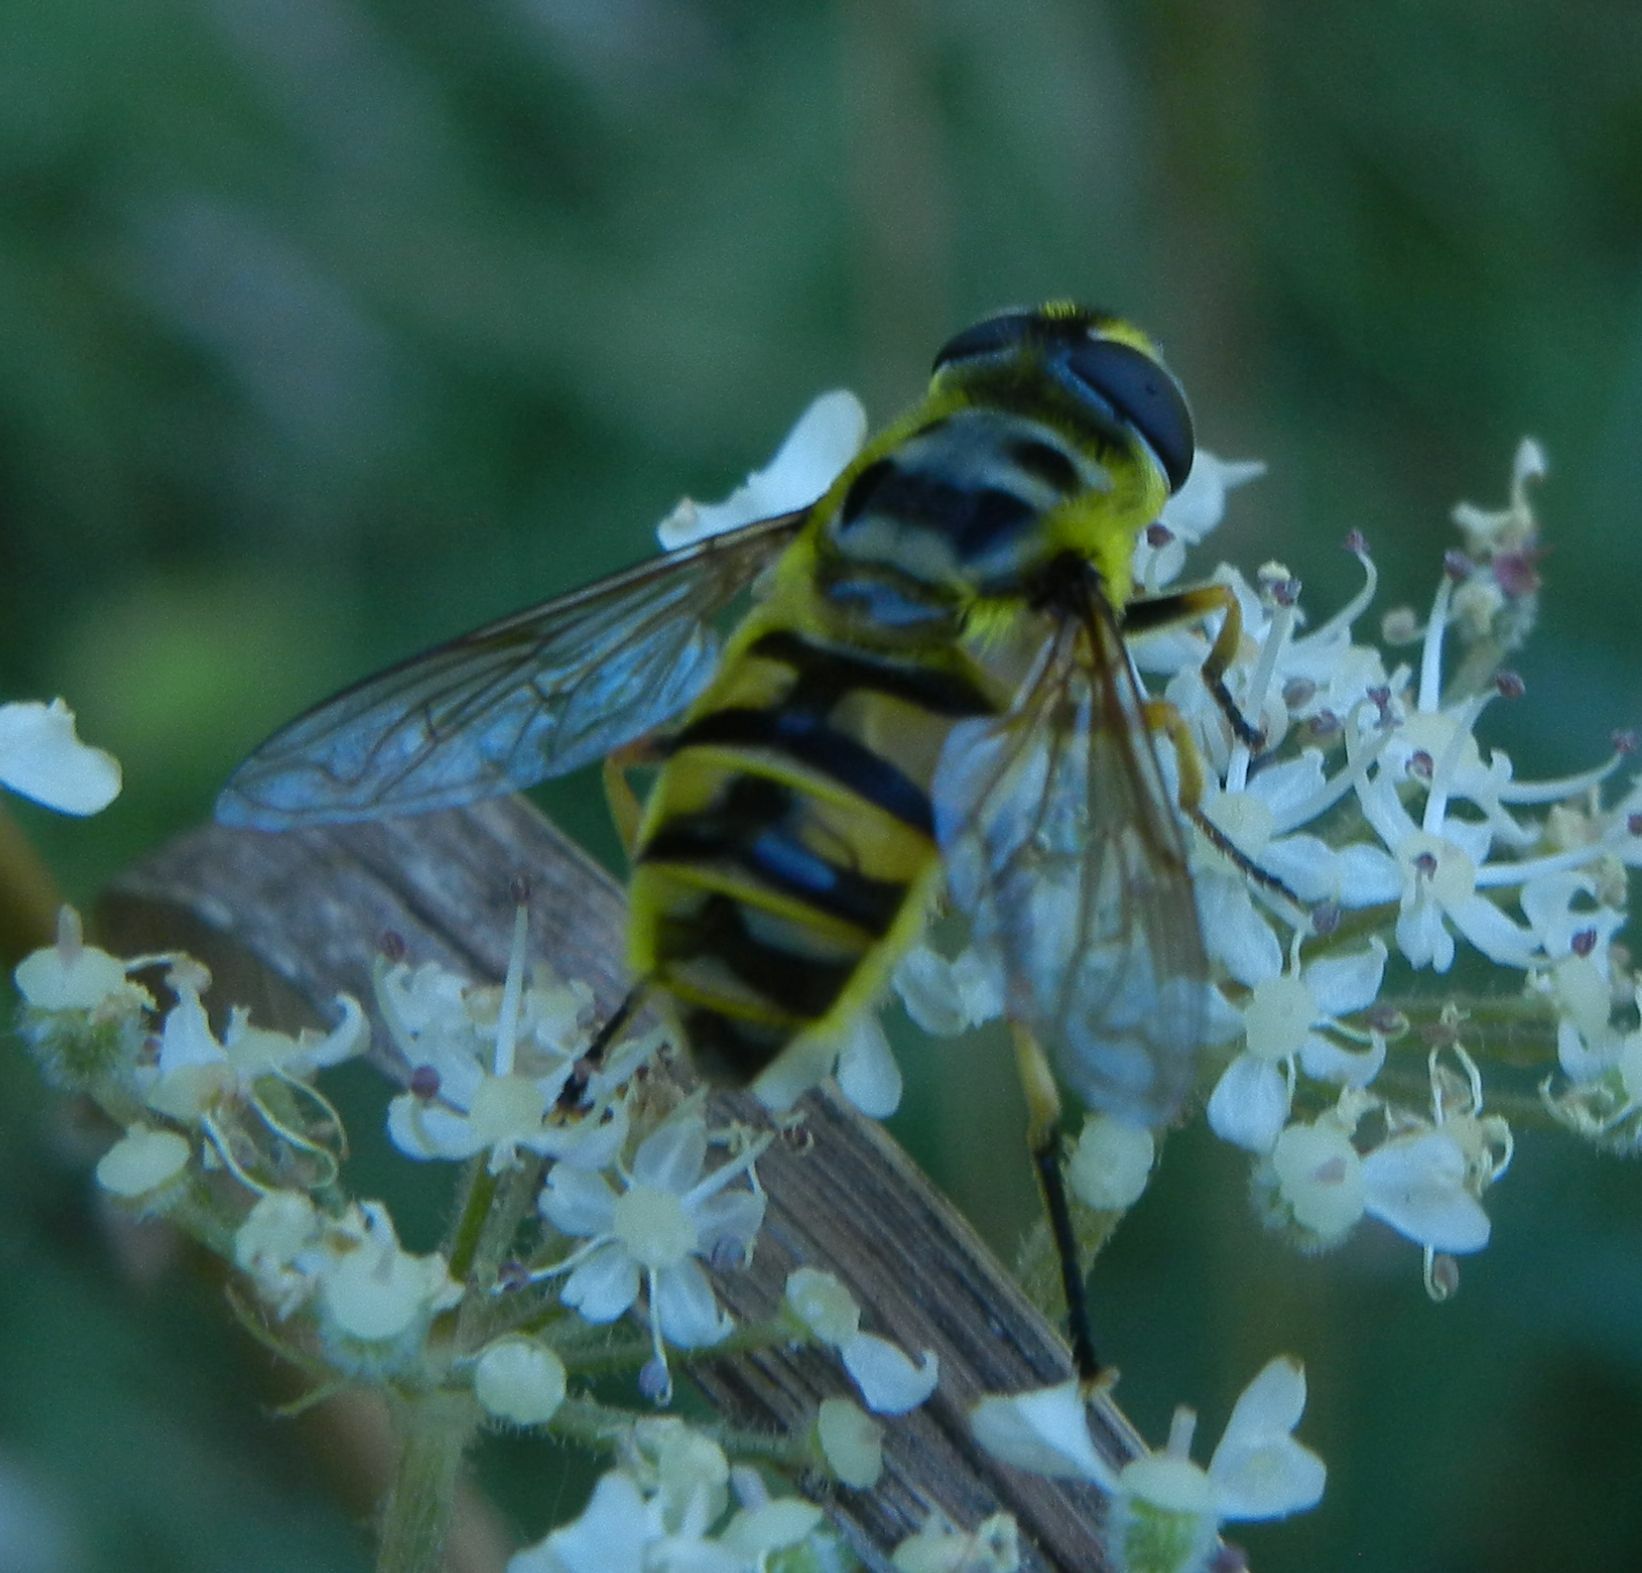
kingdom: Animalia
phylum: Arthropoda
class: Insecta
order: Diptera
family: Syrphidae
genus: Myathropa
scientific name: Myathropa florea
